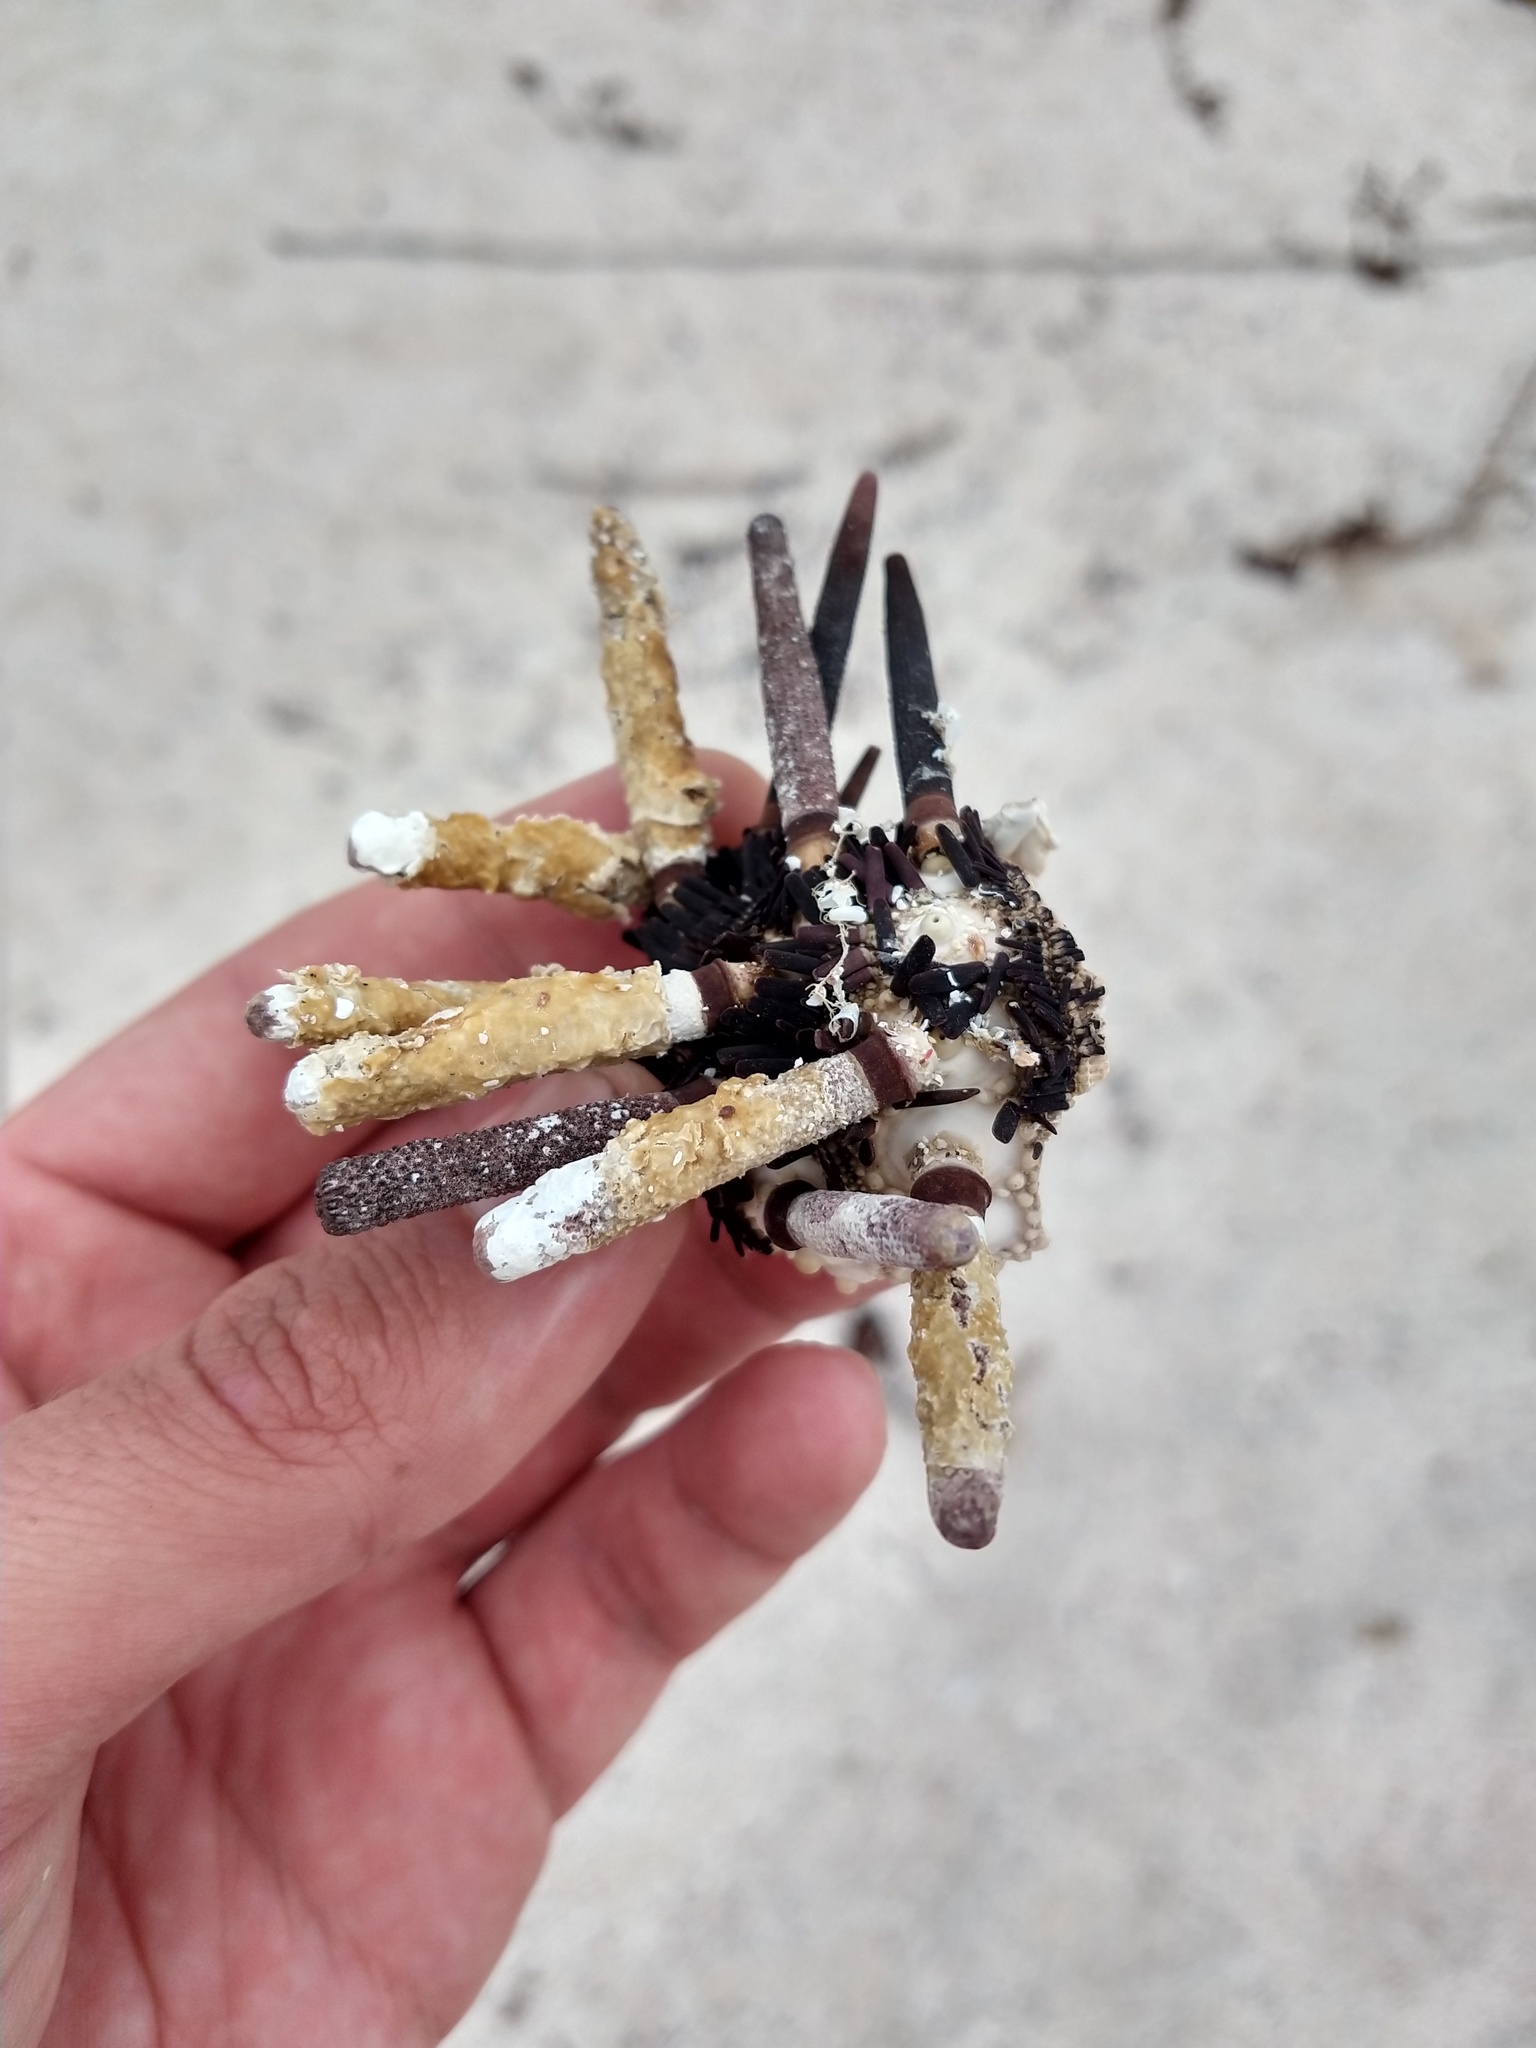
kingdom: Animalia
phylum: Echinodermata
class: Echinoidea
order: Cidaroida
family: Cidaridae
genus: Eucidaris
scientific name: Eucidaris galapagensis
